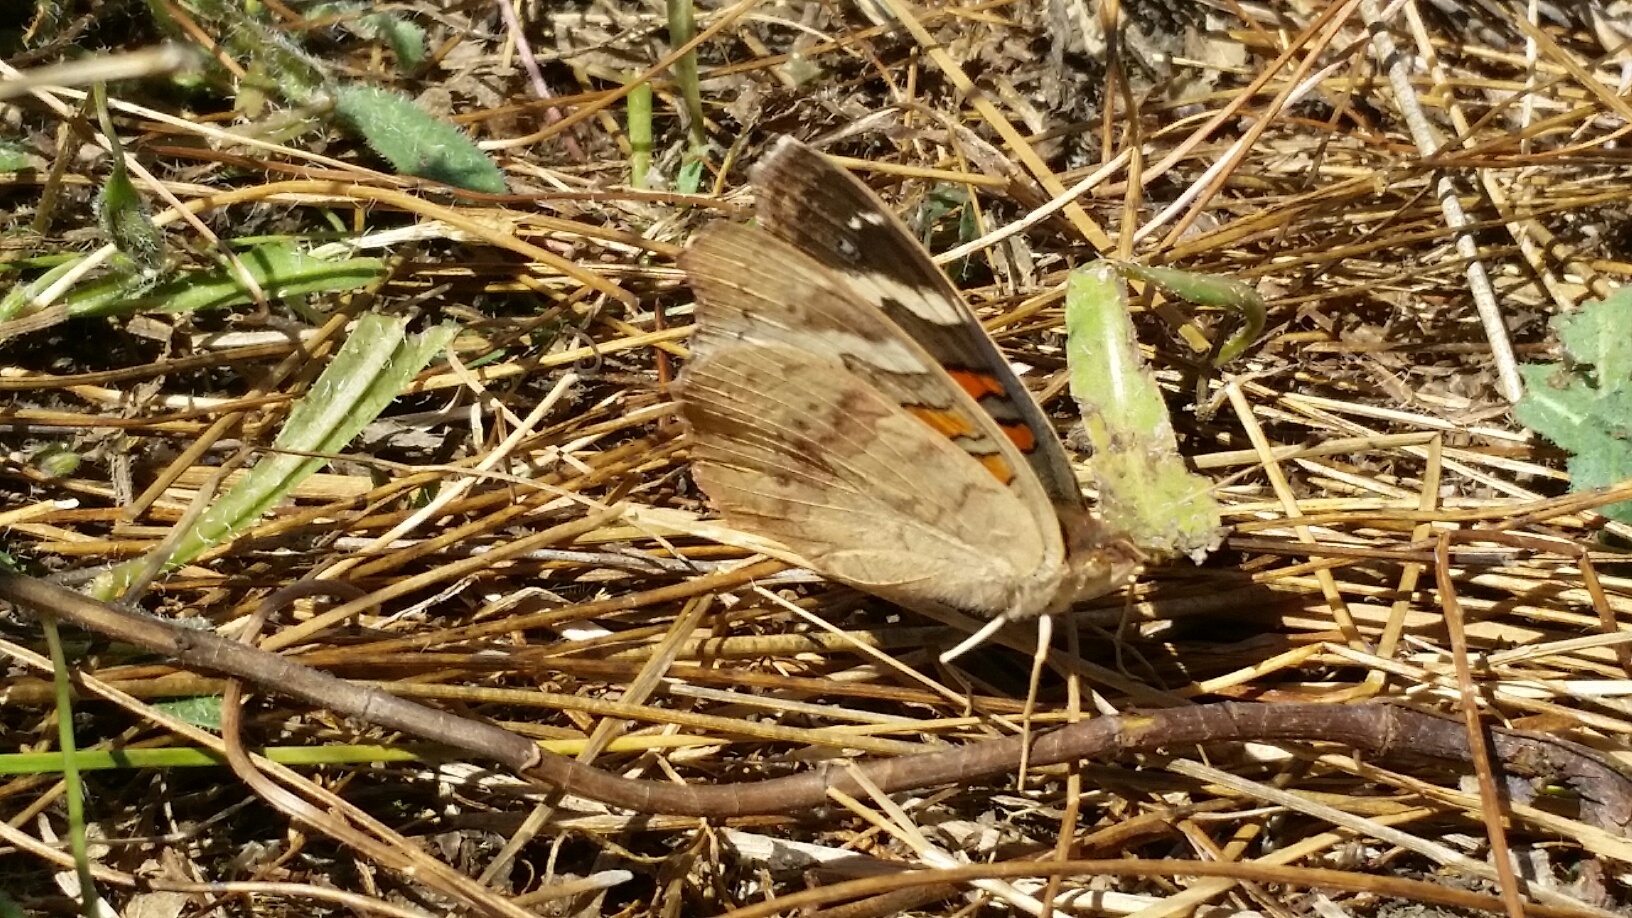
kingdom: Animalia
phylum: Arthropoda
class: Insecta
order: Lepidoptera
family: Nymphalidae
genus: Junonia
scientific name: Junonia grisea
